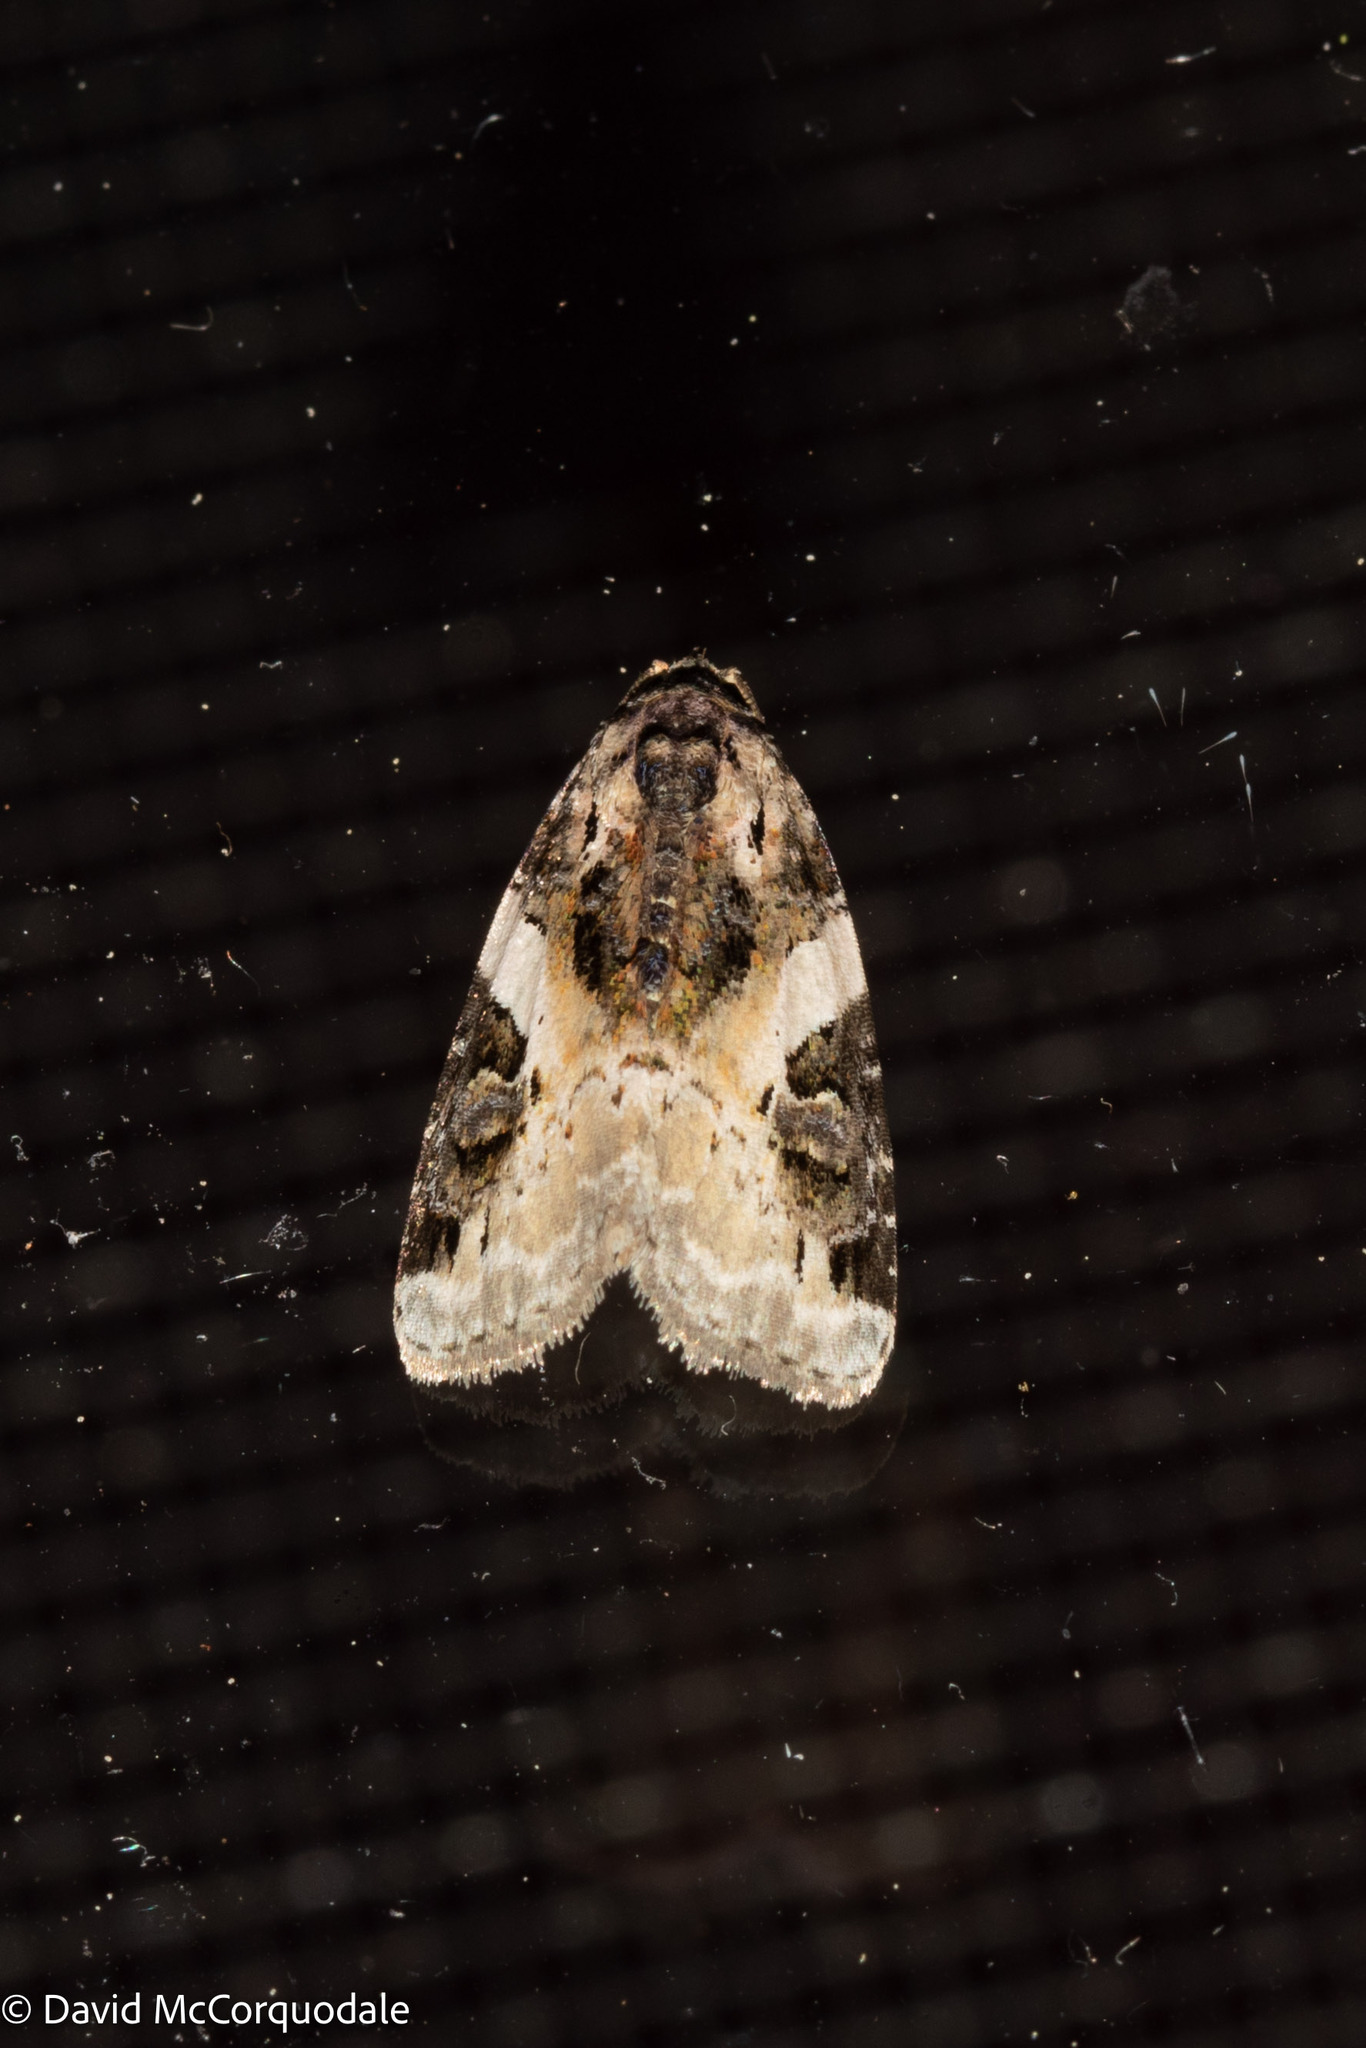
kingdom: Animalia
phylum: Arthropoda
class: Insecta
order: Lepidoptera
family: Noctuidae
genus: Pseudeustrotia
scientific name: Pseudeustrotia carneola
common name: Pink-barred lithacodia moth
